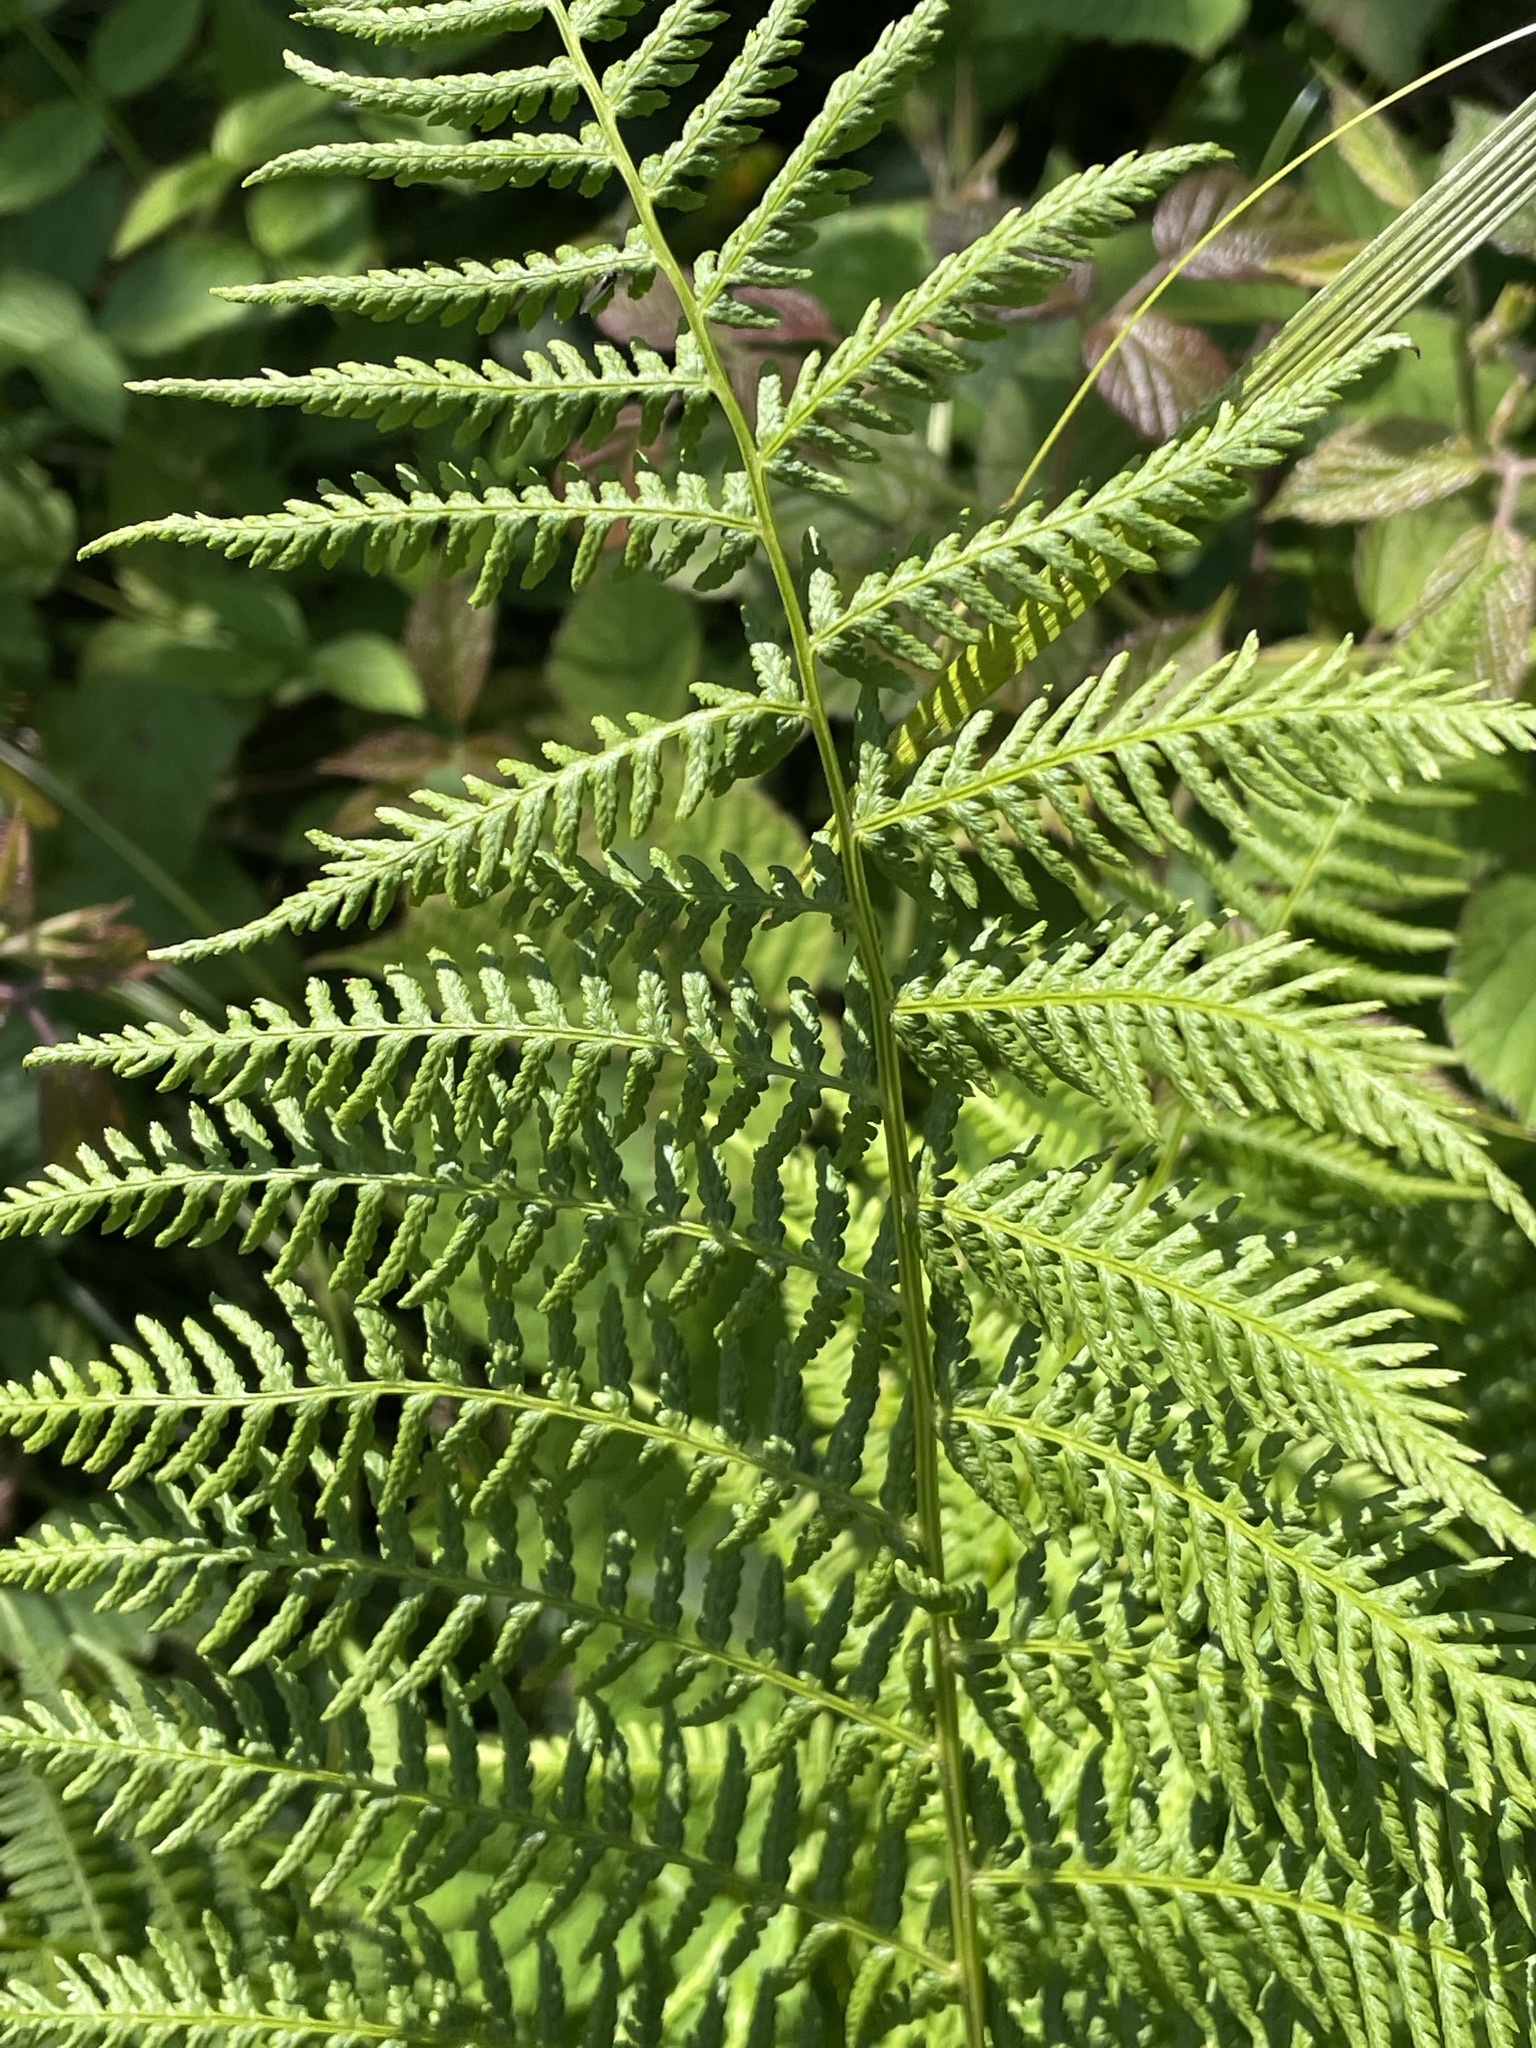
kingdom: Plantae
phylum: Tracheophyta
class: Polypodiopsida
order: Polypodiales
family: Athyriaceae
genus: Athyrium
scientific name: Athyrium filix-femina
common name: Lady fern
